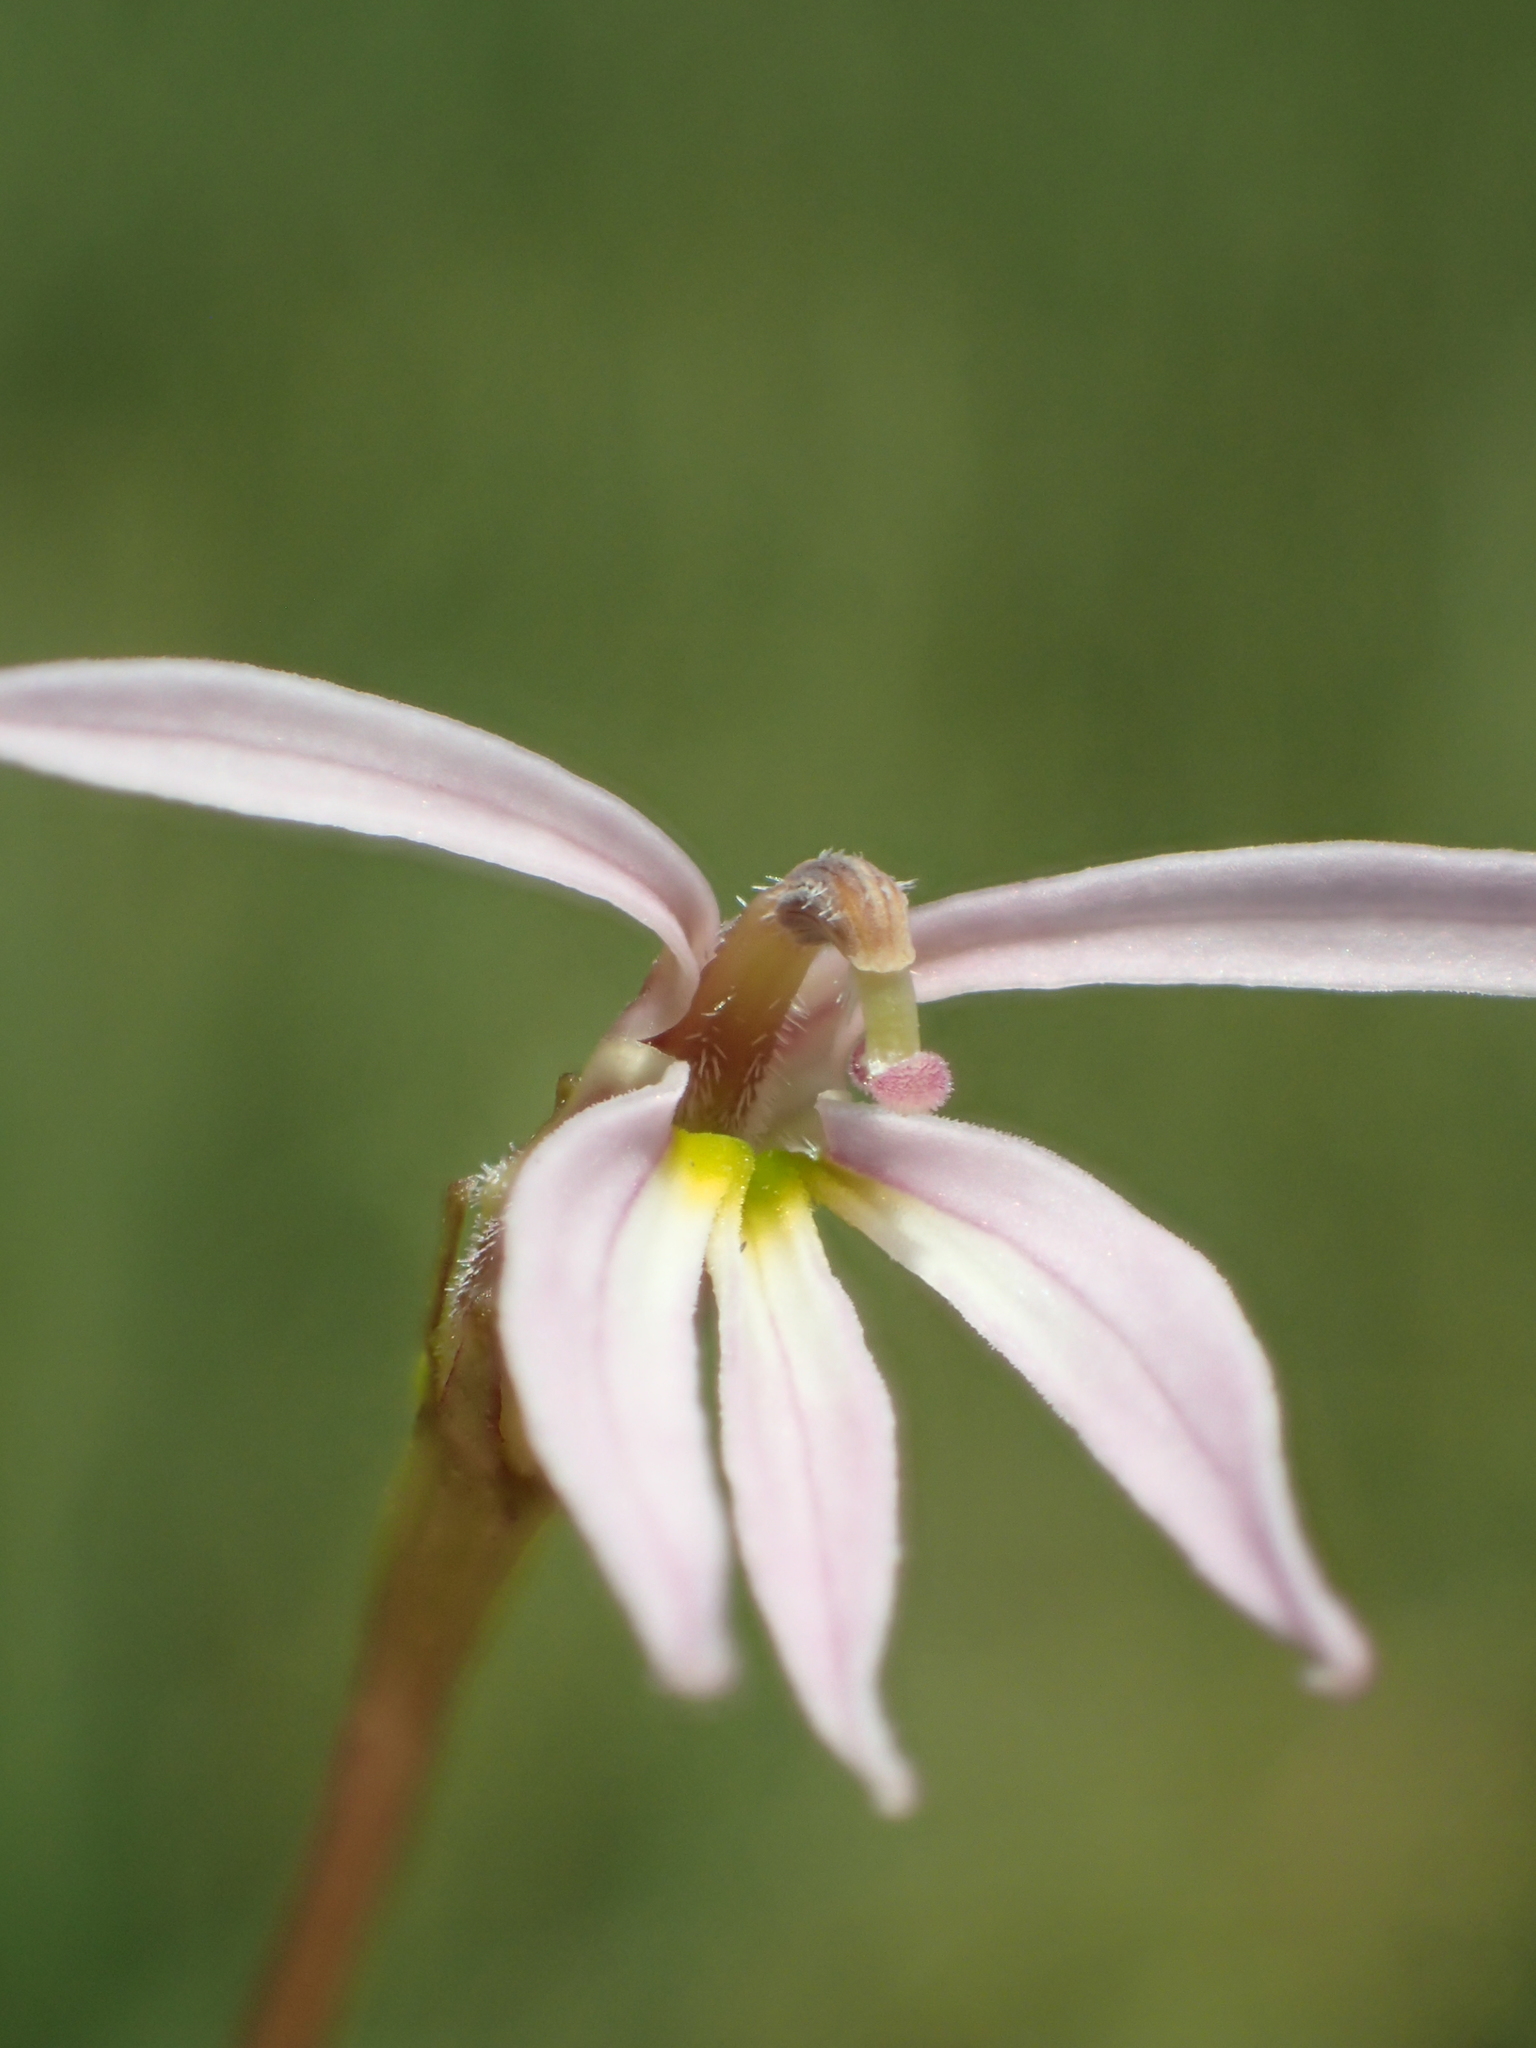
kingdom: Plantae
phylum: Tracheophyta
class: Magnoliopsida
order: Asterales
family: Campanulaceae
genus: Lobelia
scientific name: Lobelia chinensis
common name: Chinese lobelia
